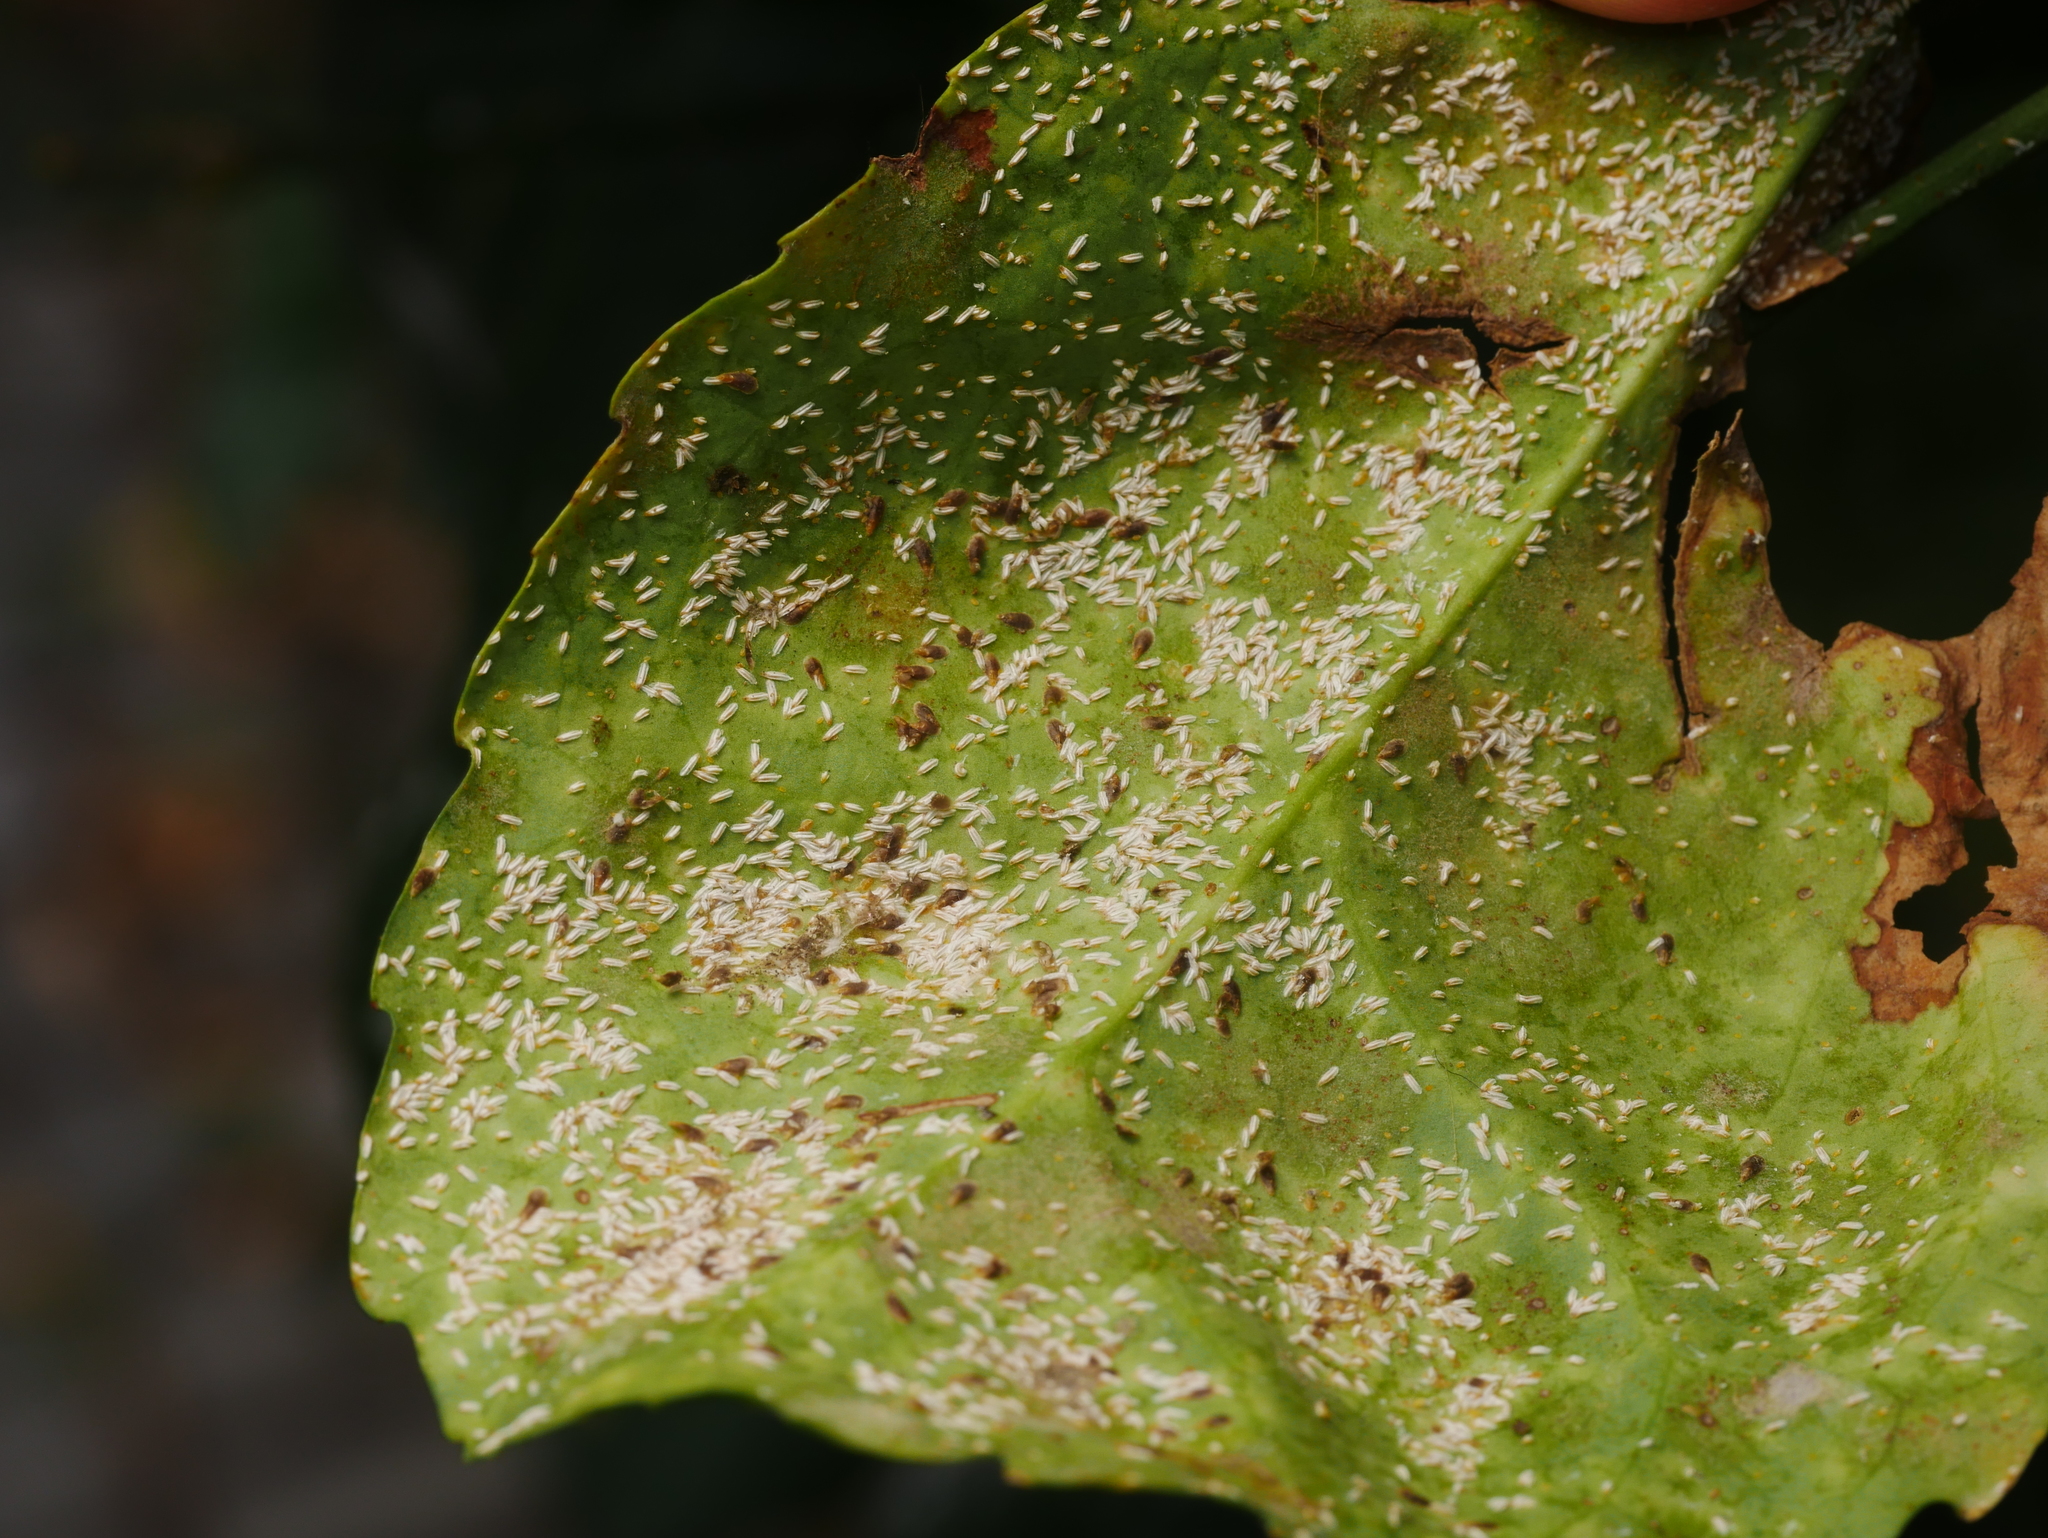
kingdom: Animalia
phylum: Arthropoda
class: Insecta
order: Hemiptera
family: Diaspididae
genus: Unaspis
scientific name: Unaspis euonymi
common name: Euonymus scale
